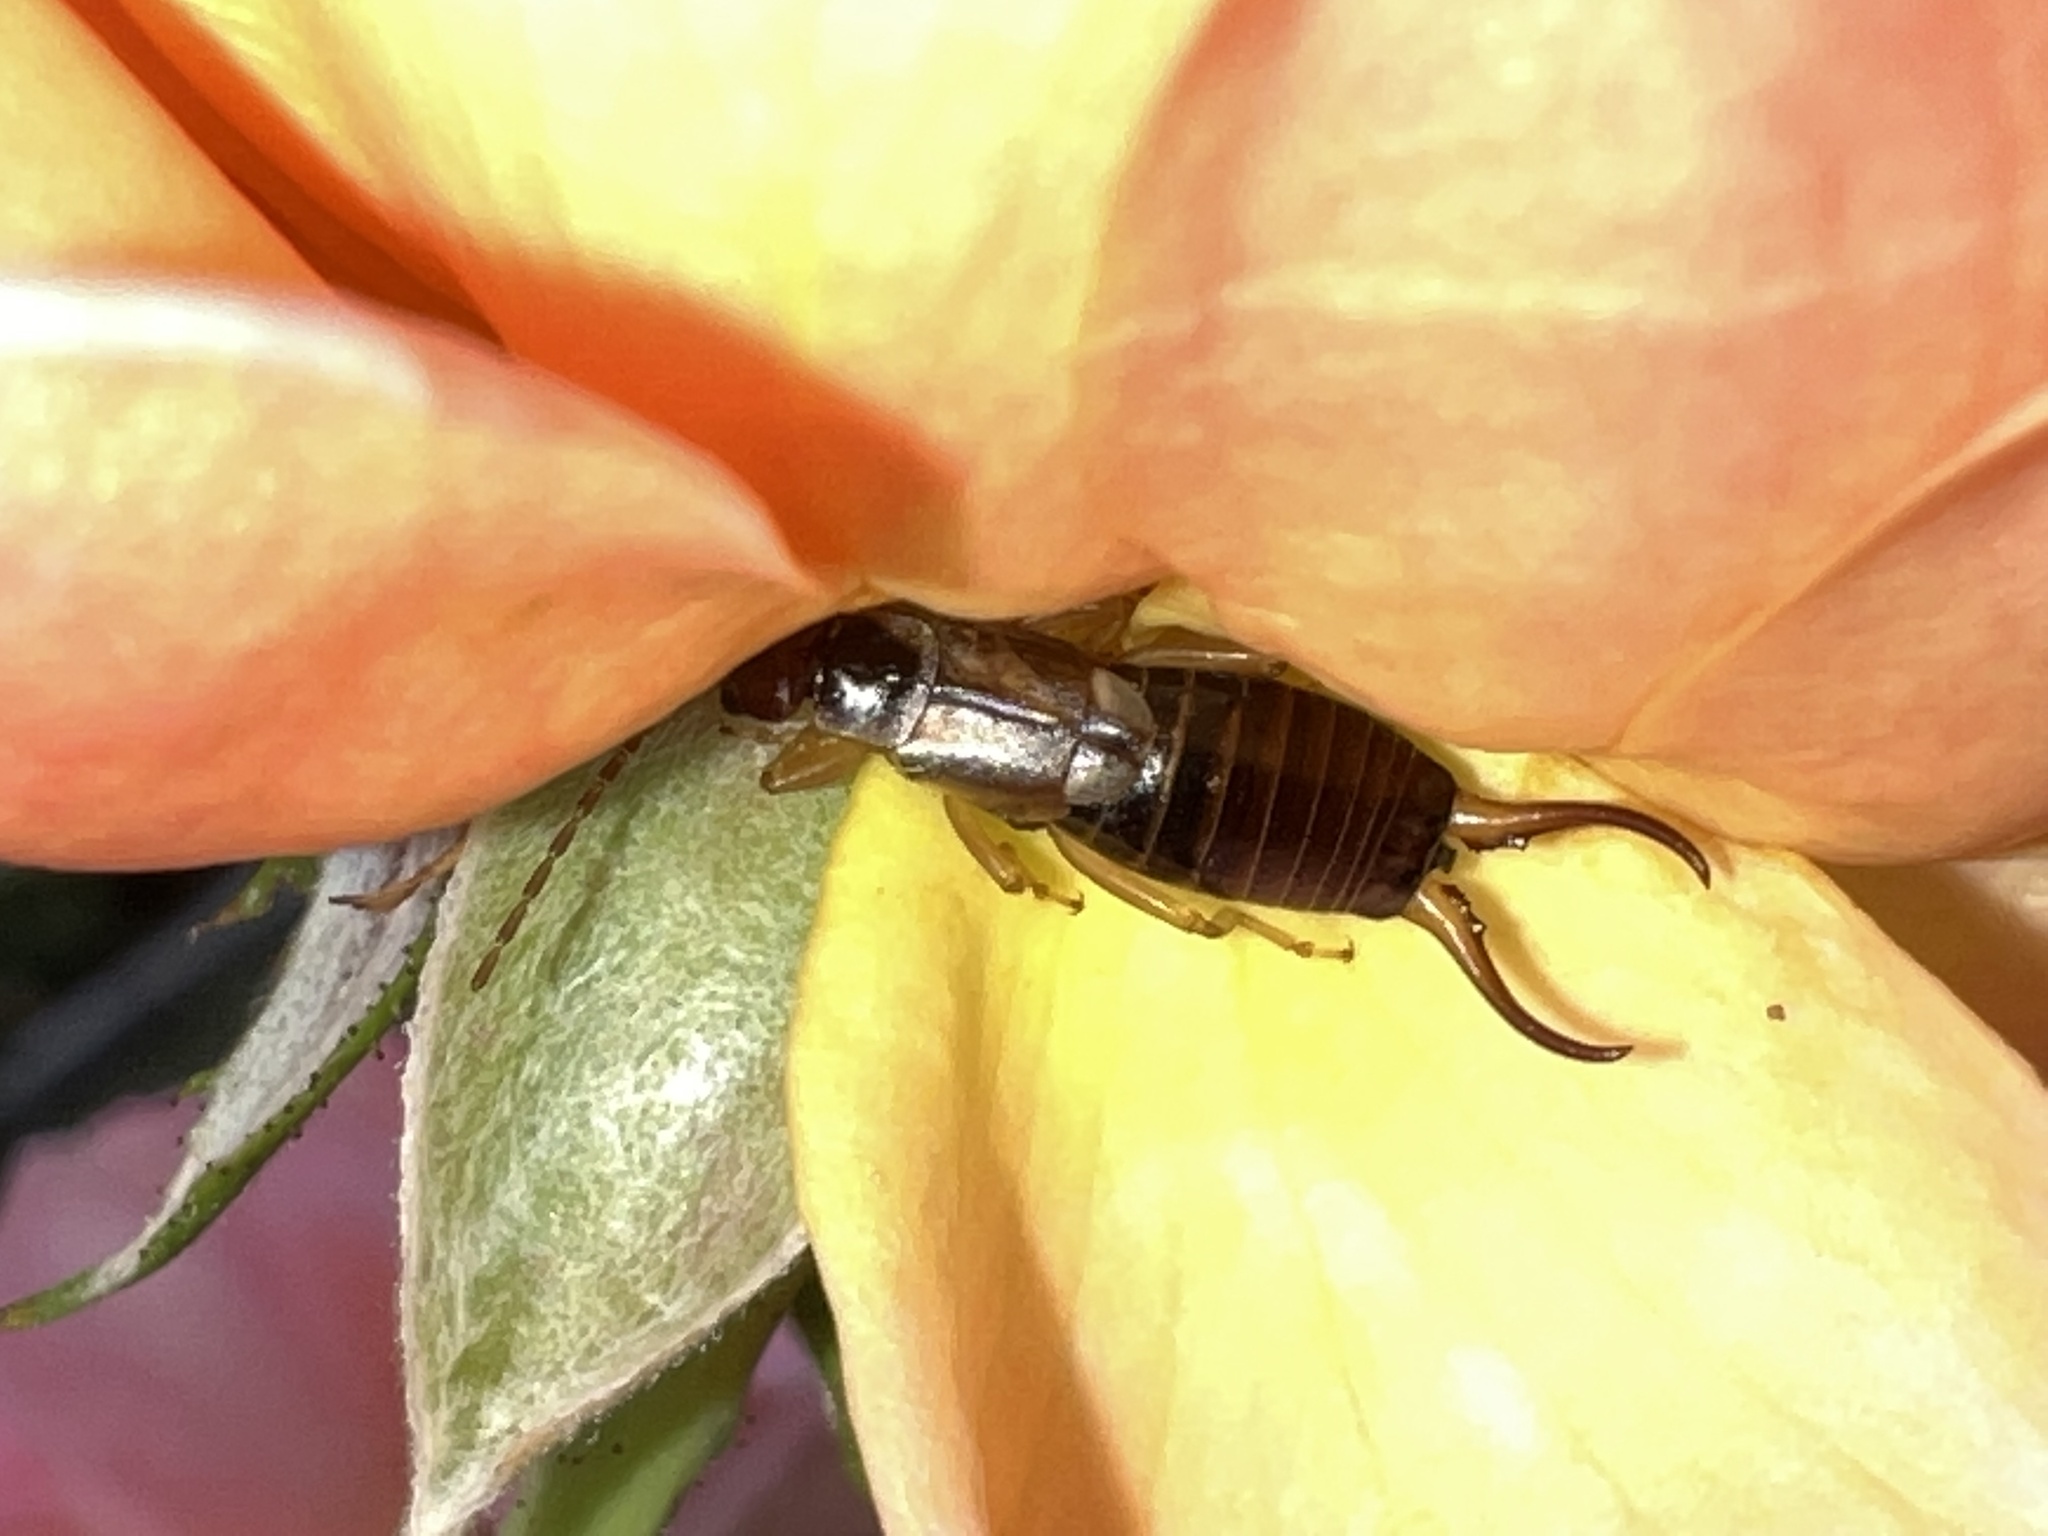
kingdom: Animalia
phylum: Arthropoda
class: Insecta
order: Dermaptera
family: Forficulidae
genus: Forficula
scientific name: Forficula
